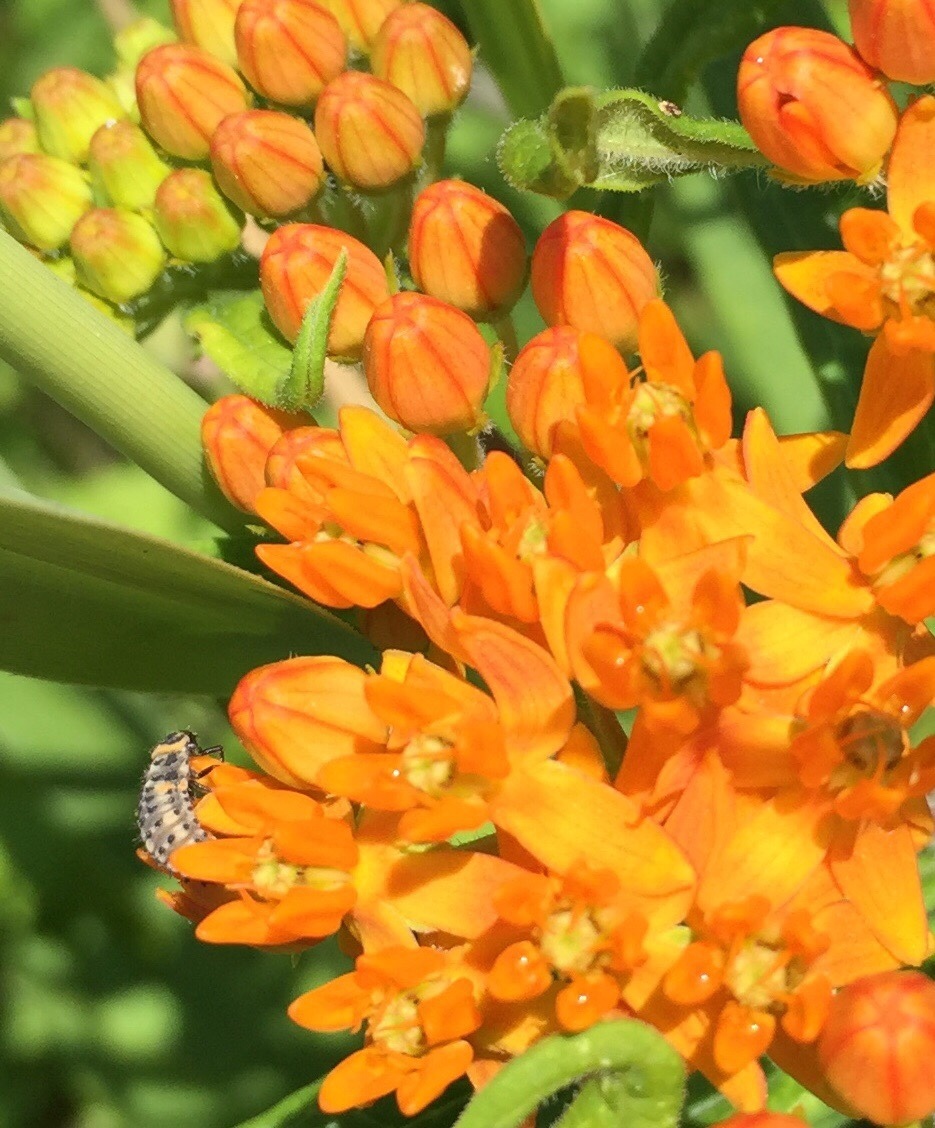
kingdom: Plantae
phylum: Tracheophyta
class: Magnoliopsida
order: Gentianales
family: Apocynaceae
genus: Asclepias
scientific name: Asclepias tuberosa
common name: Butterfly milkweed
